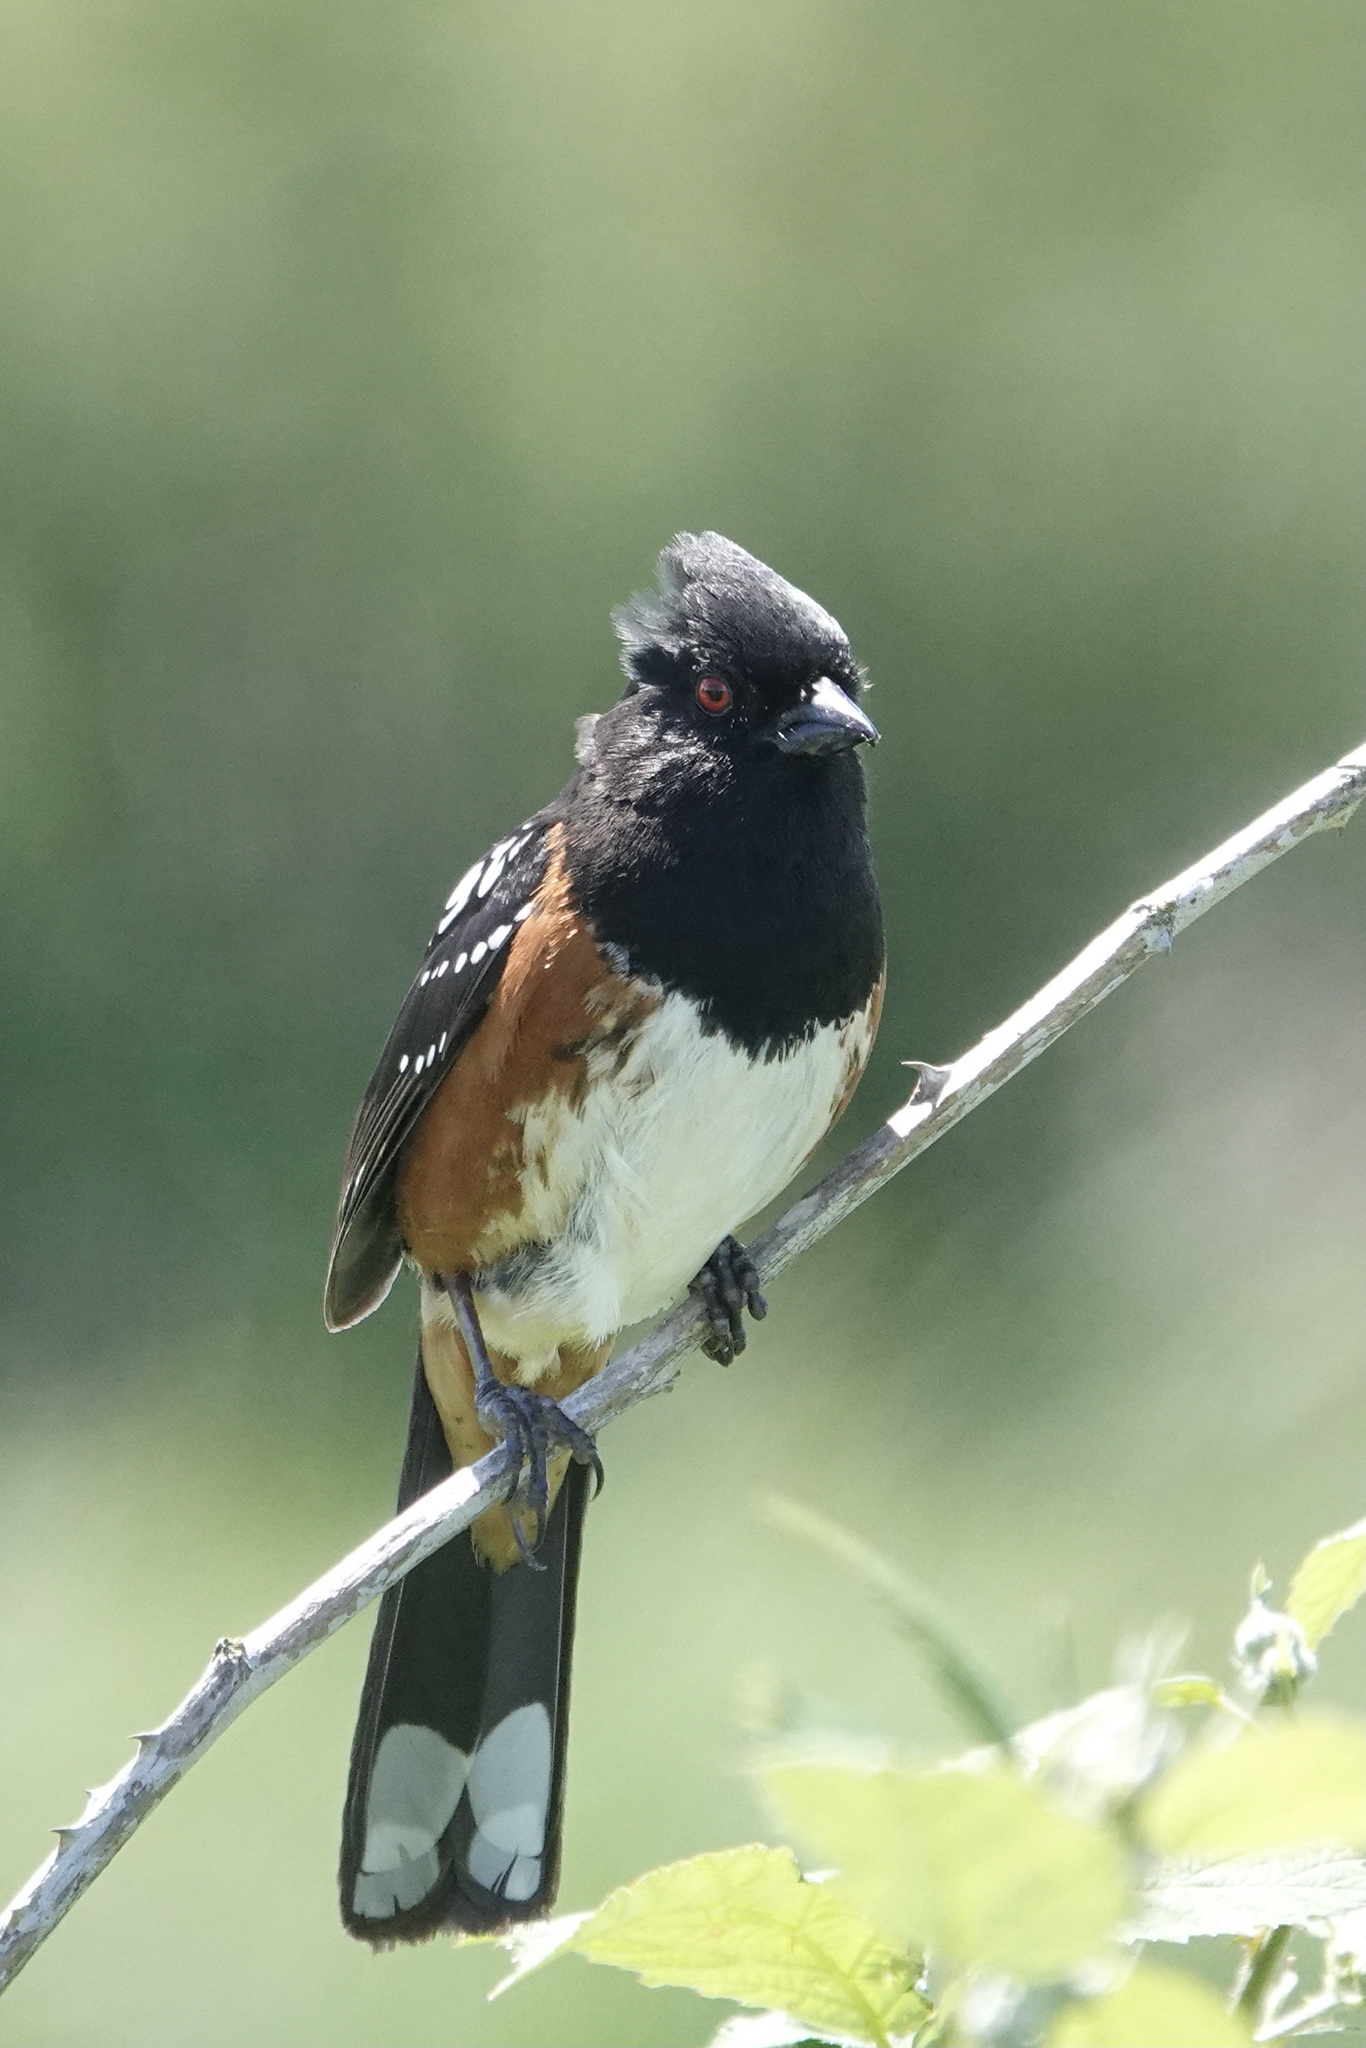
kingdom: Animalia
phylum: Chordata
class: Aves
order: Passeriformes
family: Passerellidae
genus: Pipilo
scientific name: Pipilo maculatus
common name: Spotted towhee
